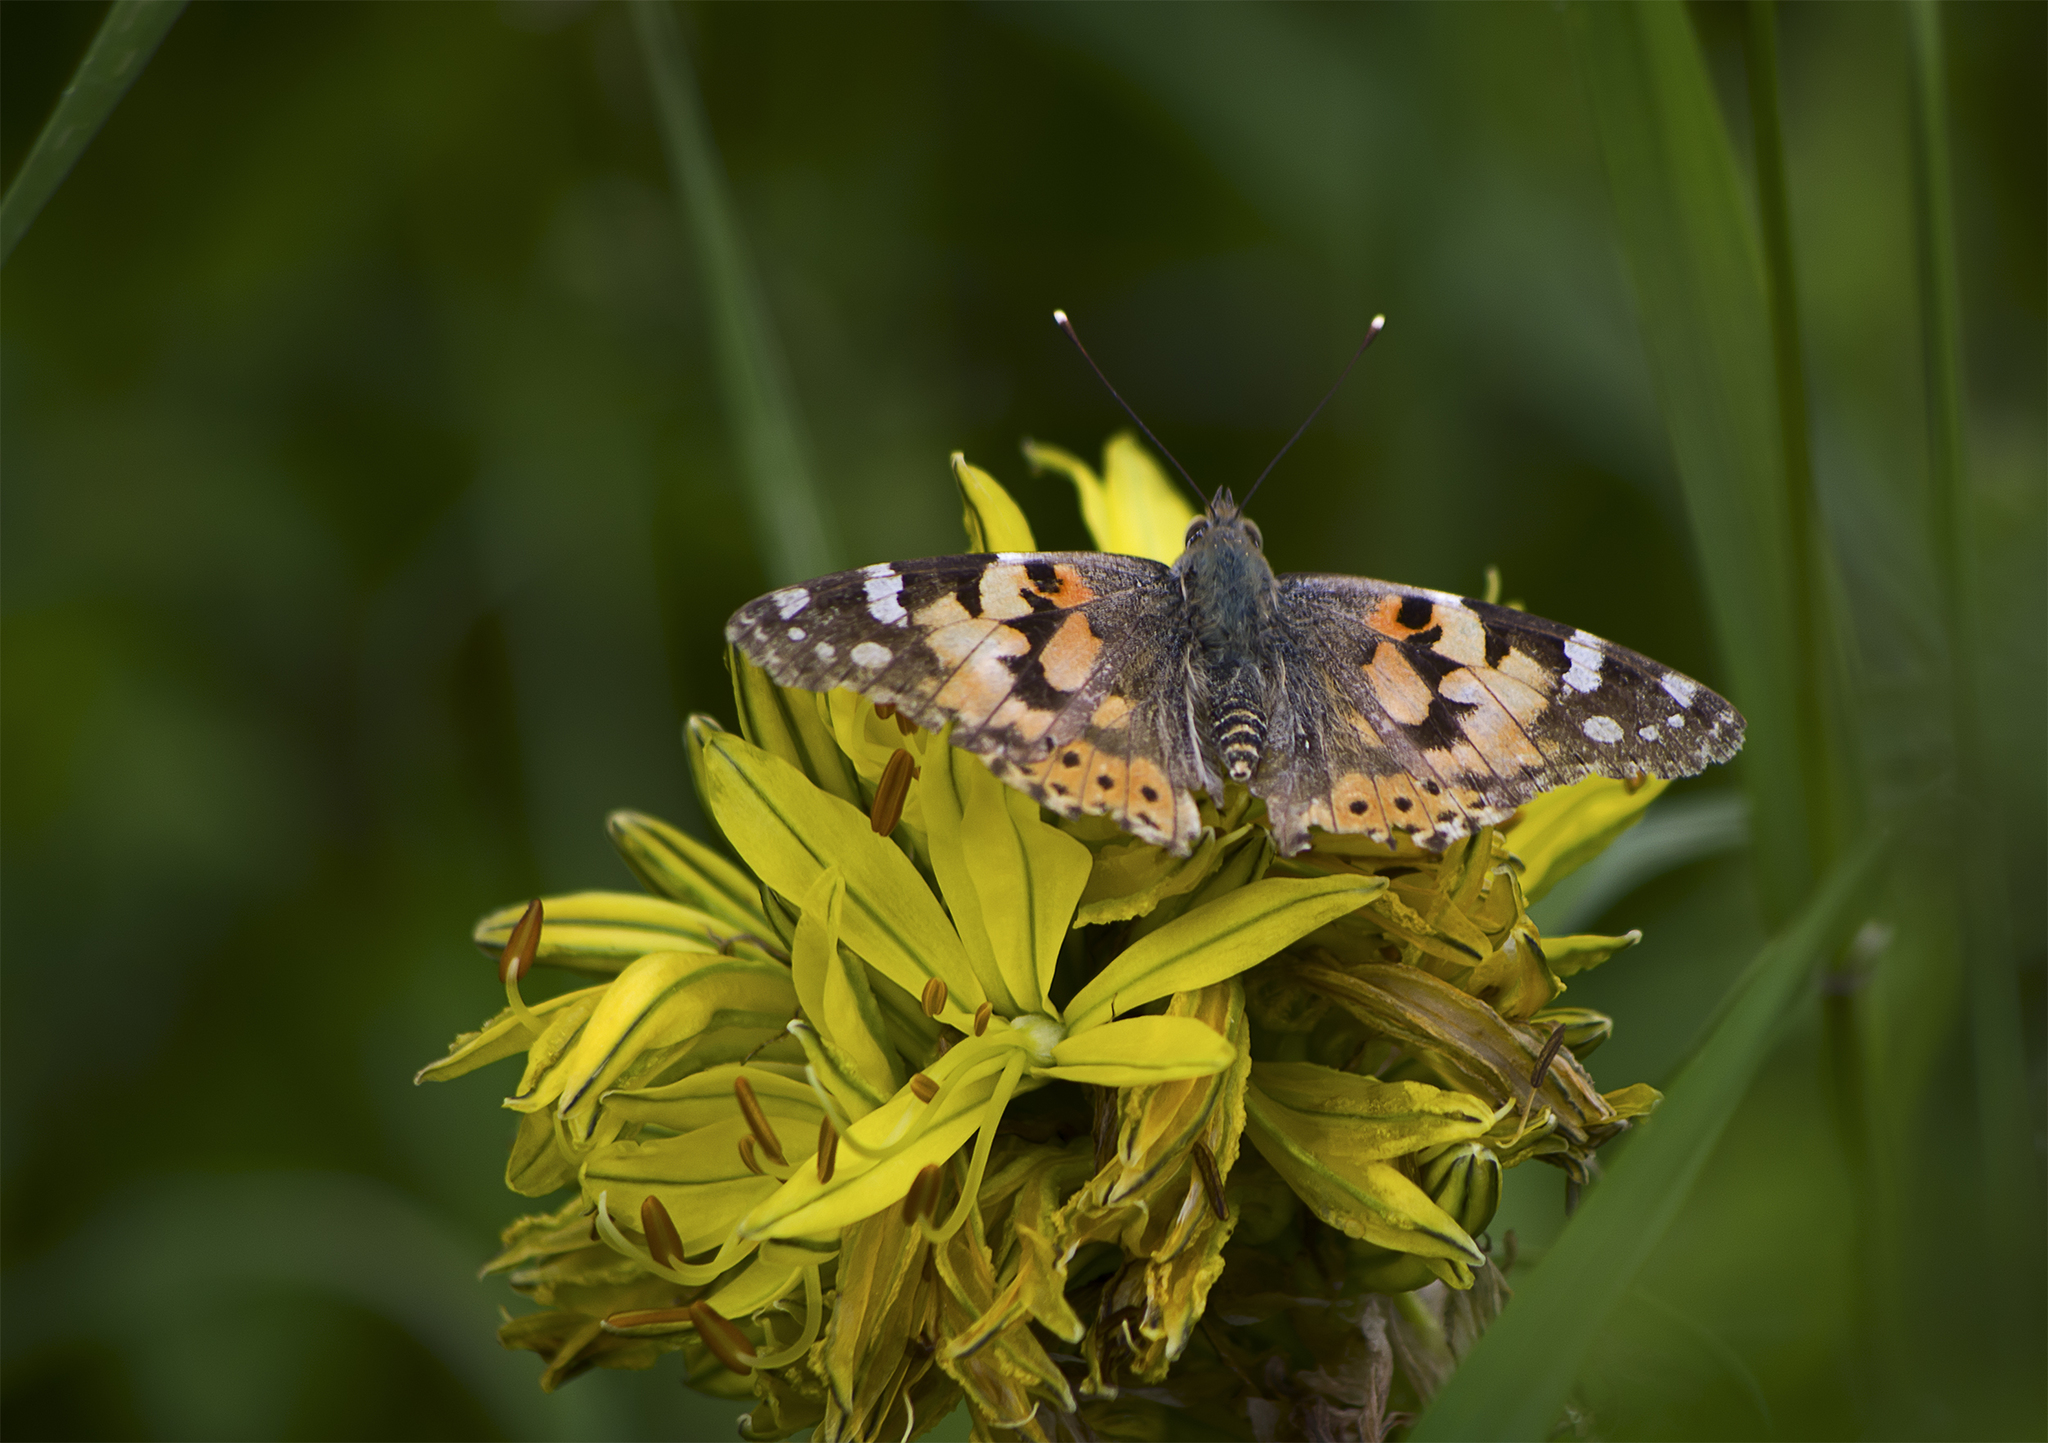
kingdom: Animalia
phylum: Arthropoda
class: Insecta
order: Lepidoptera
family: Nymphalidae
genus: Vanessa
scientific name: Vanessa cardui
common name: Painted lady
